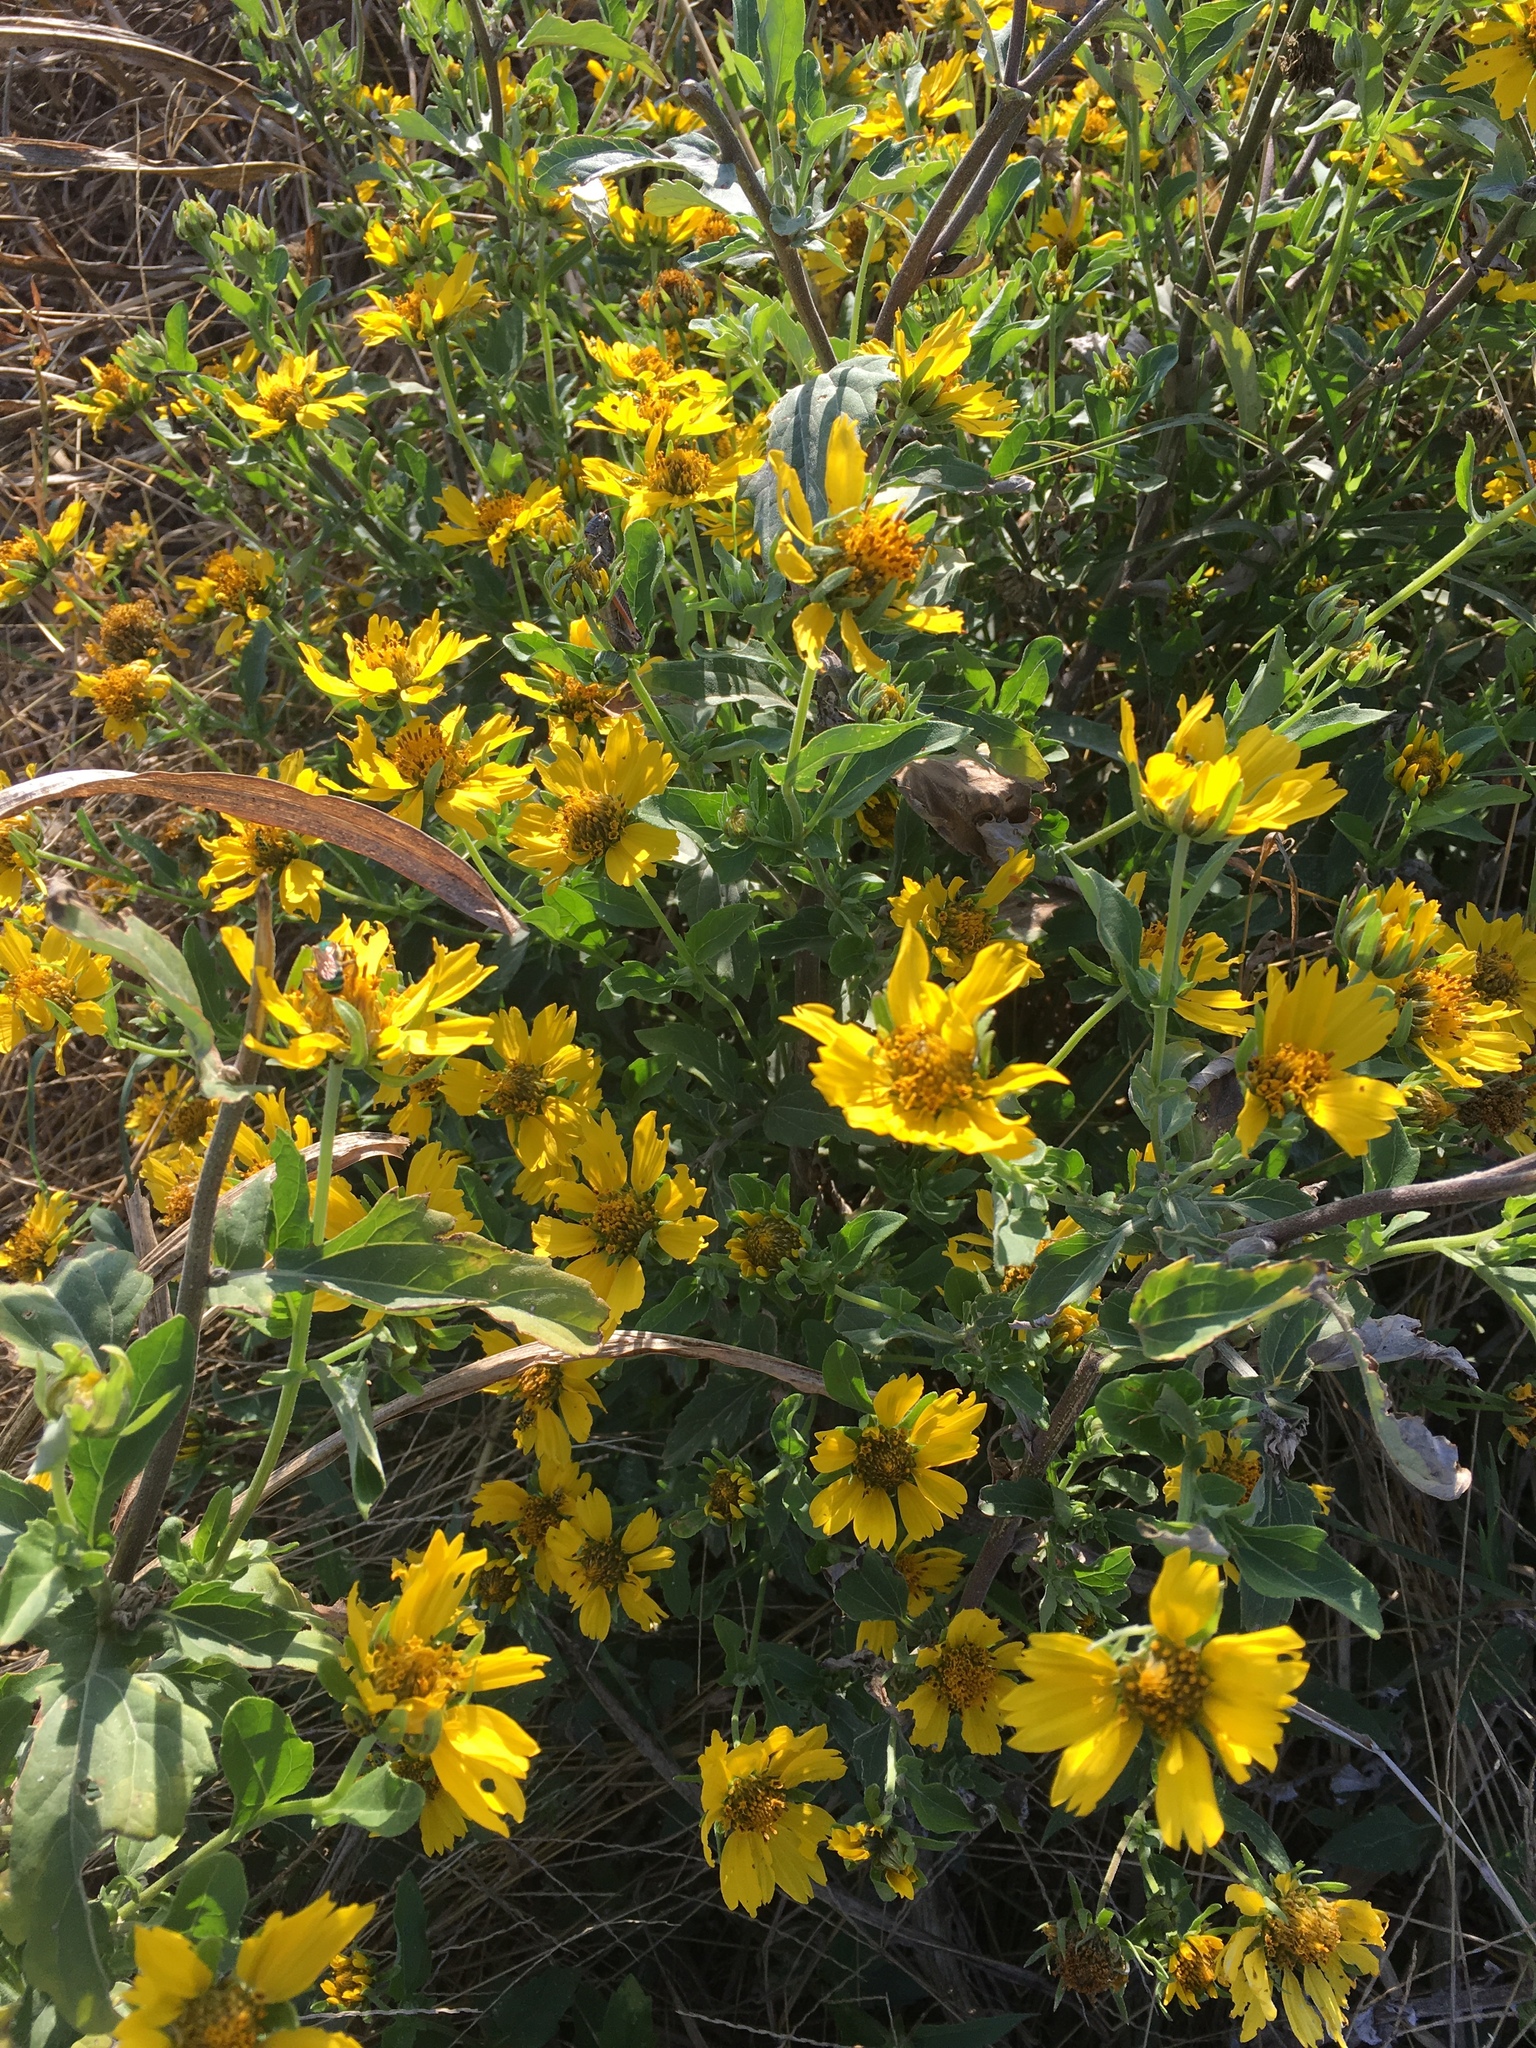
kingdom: Plantae
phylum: Tracheophyta
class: Magnoliopsida
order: Asterales
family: Asteraceae
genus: Verbesina
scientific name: Verbesina encelioides
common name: Golden crownbeard
